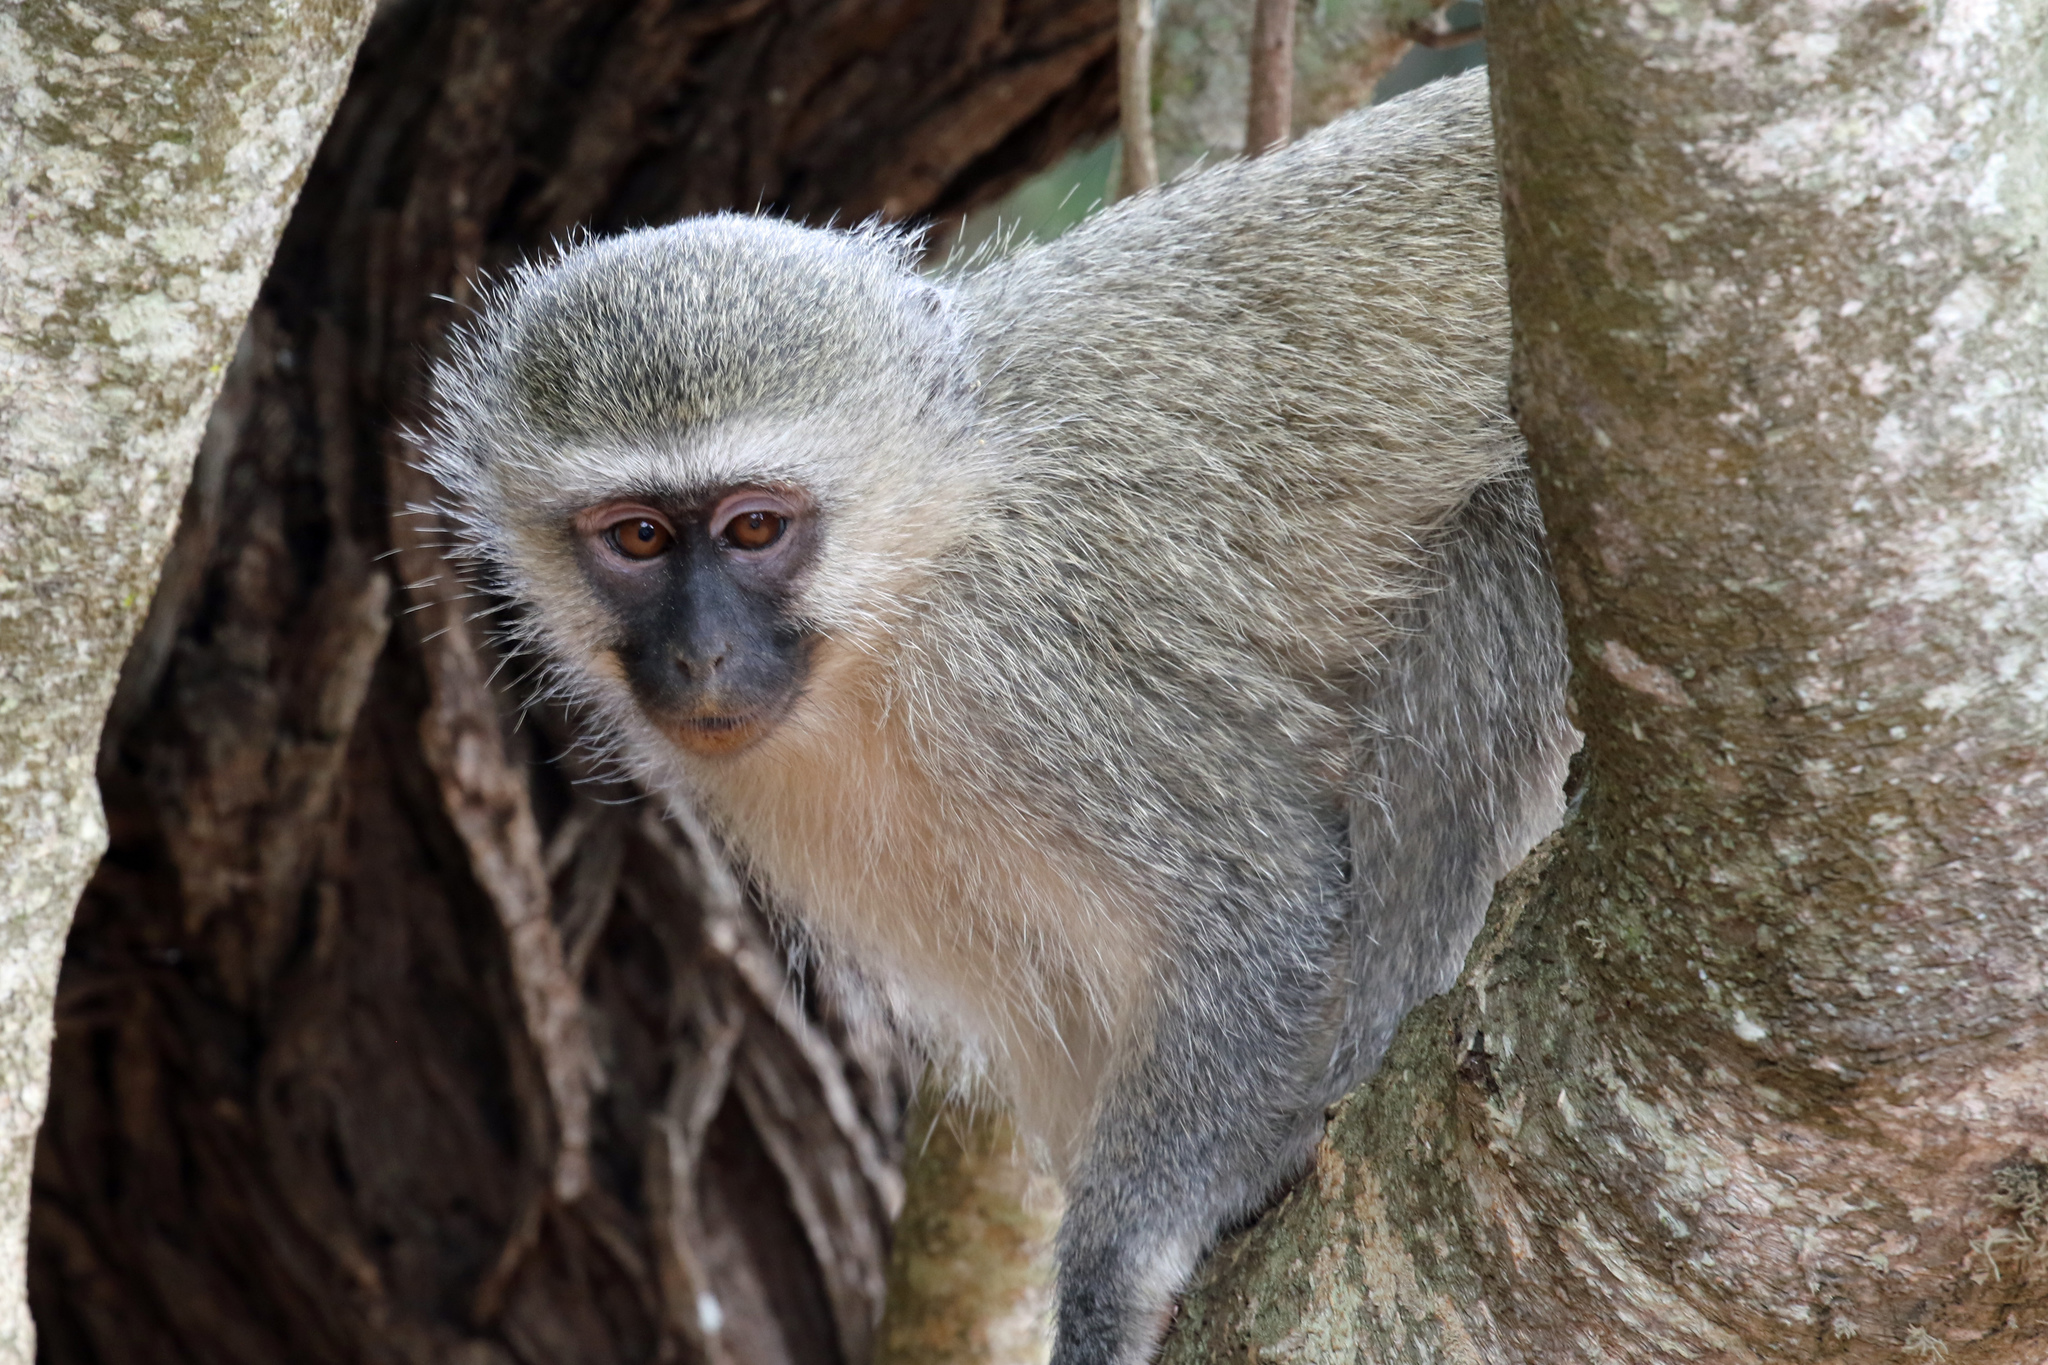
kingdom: Animalia
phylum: Chordata
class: Mammalia
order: Primates
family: Cercopithecidae
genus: Chlorocebus
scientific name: Chlorocebus pygerythrus
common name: Vervet monkey
